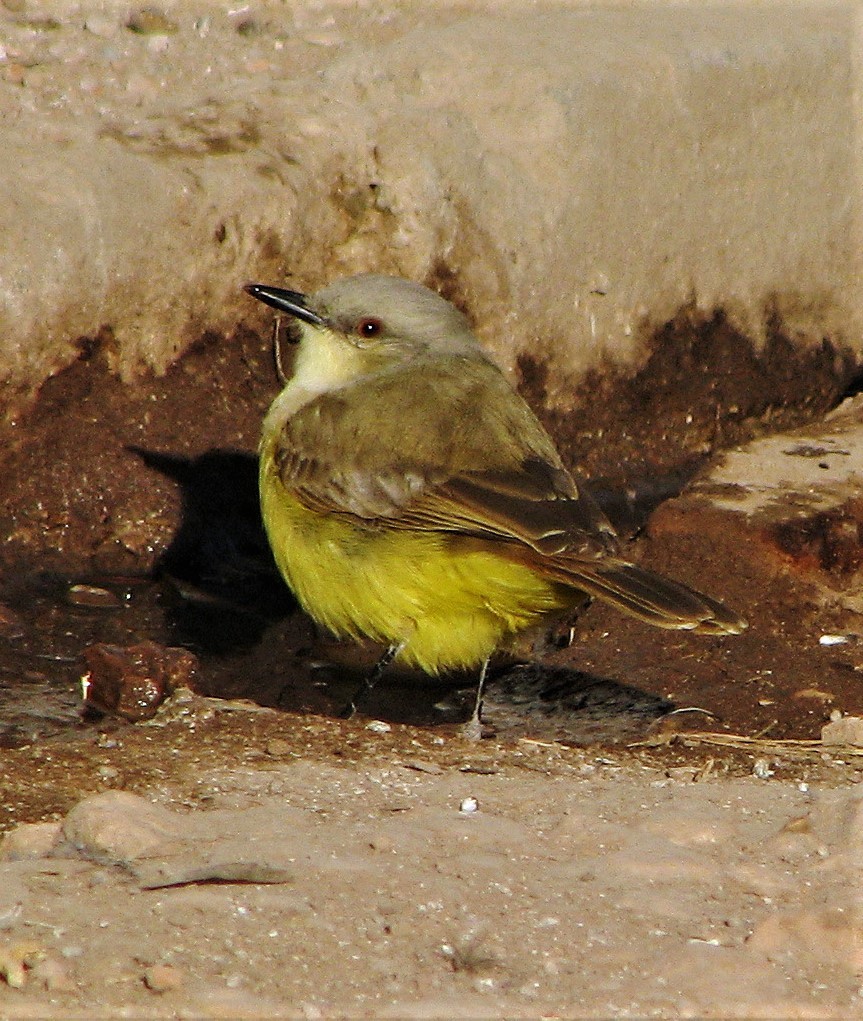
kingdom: Animalia
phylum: Chordata
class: Aves
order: Passeriformes
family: Tyrannidae
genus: Machetornis
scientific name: Machetornis rixosa
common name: Cattle tyrant
